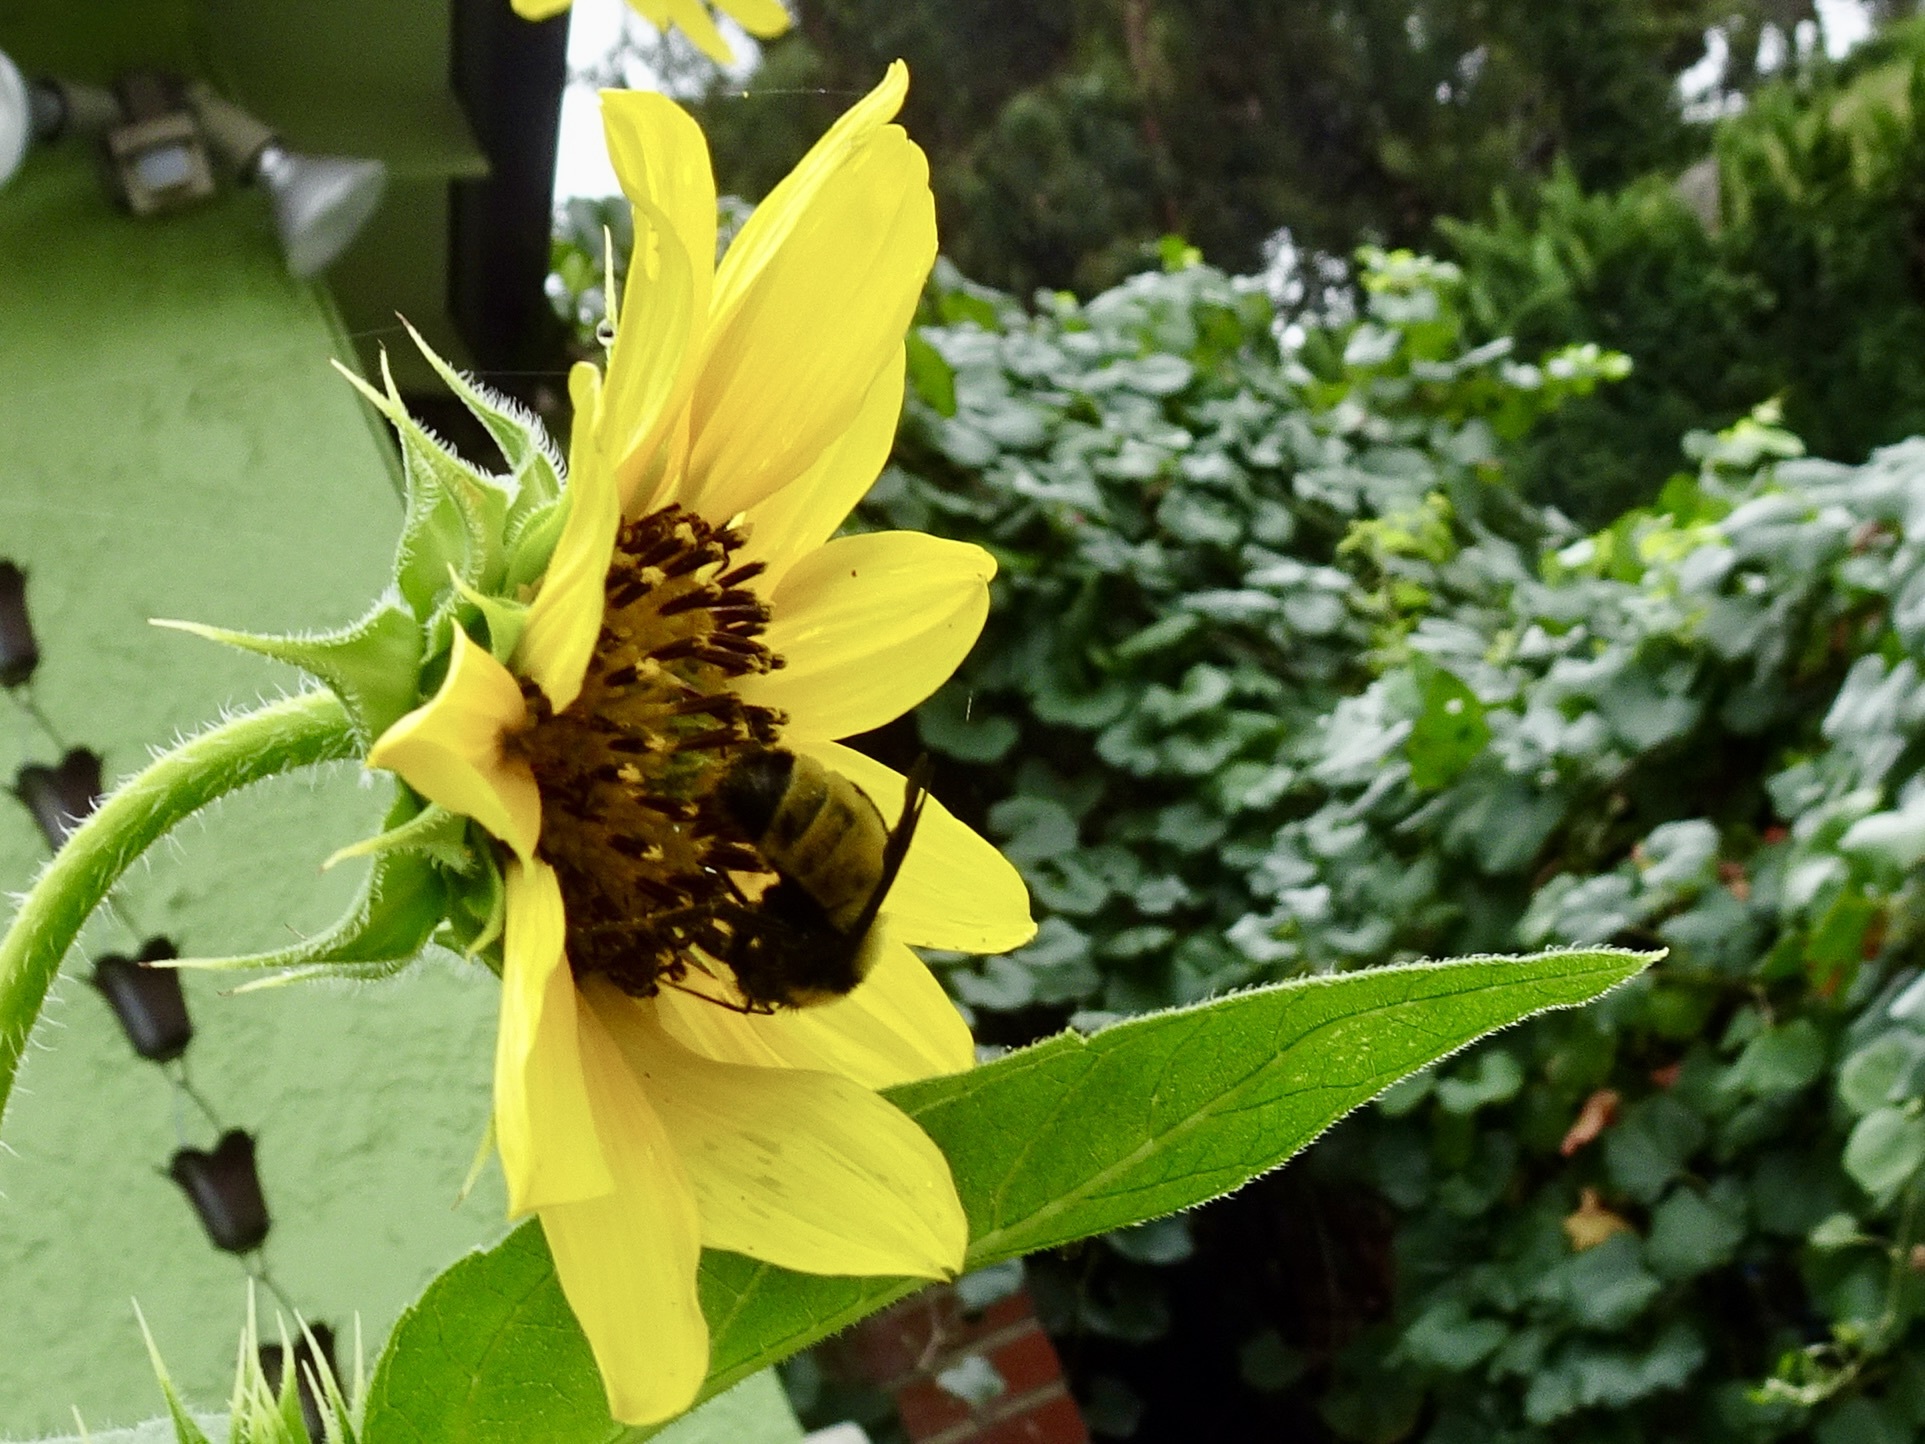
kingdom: Animalia
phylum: Arthropoda
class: Insecta
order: Hymenoptera
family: Apidae
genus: Bombus
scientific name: Bombus sonorus
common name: Sonoran bumble bee
